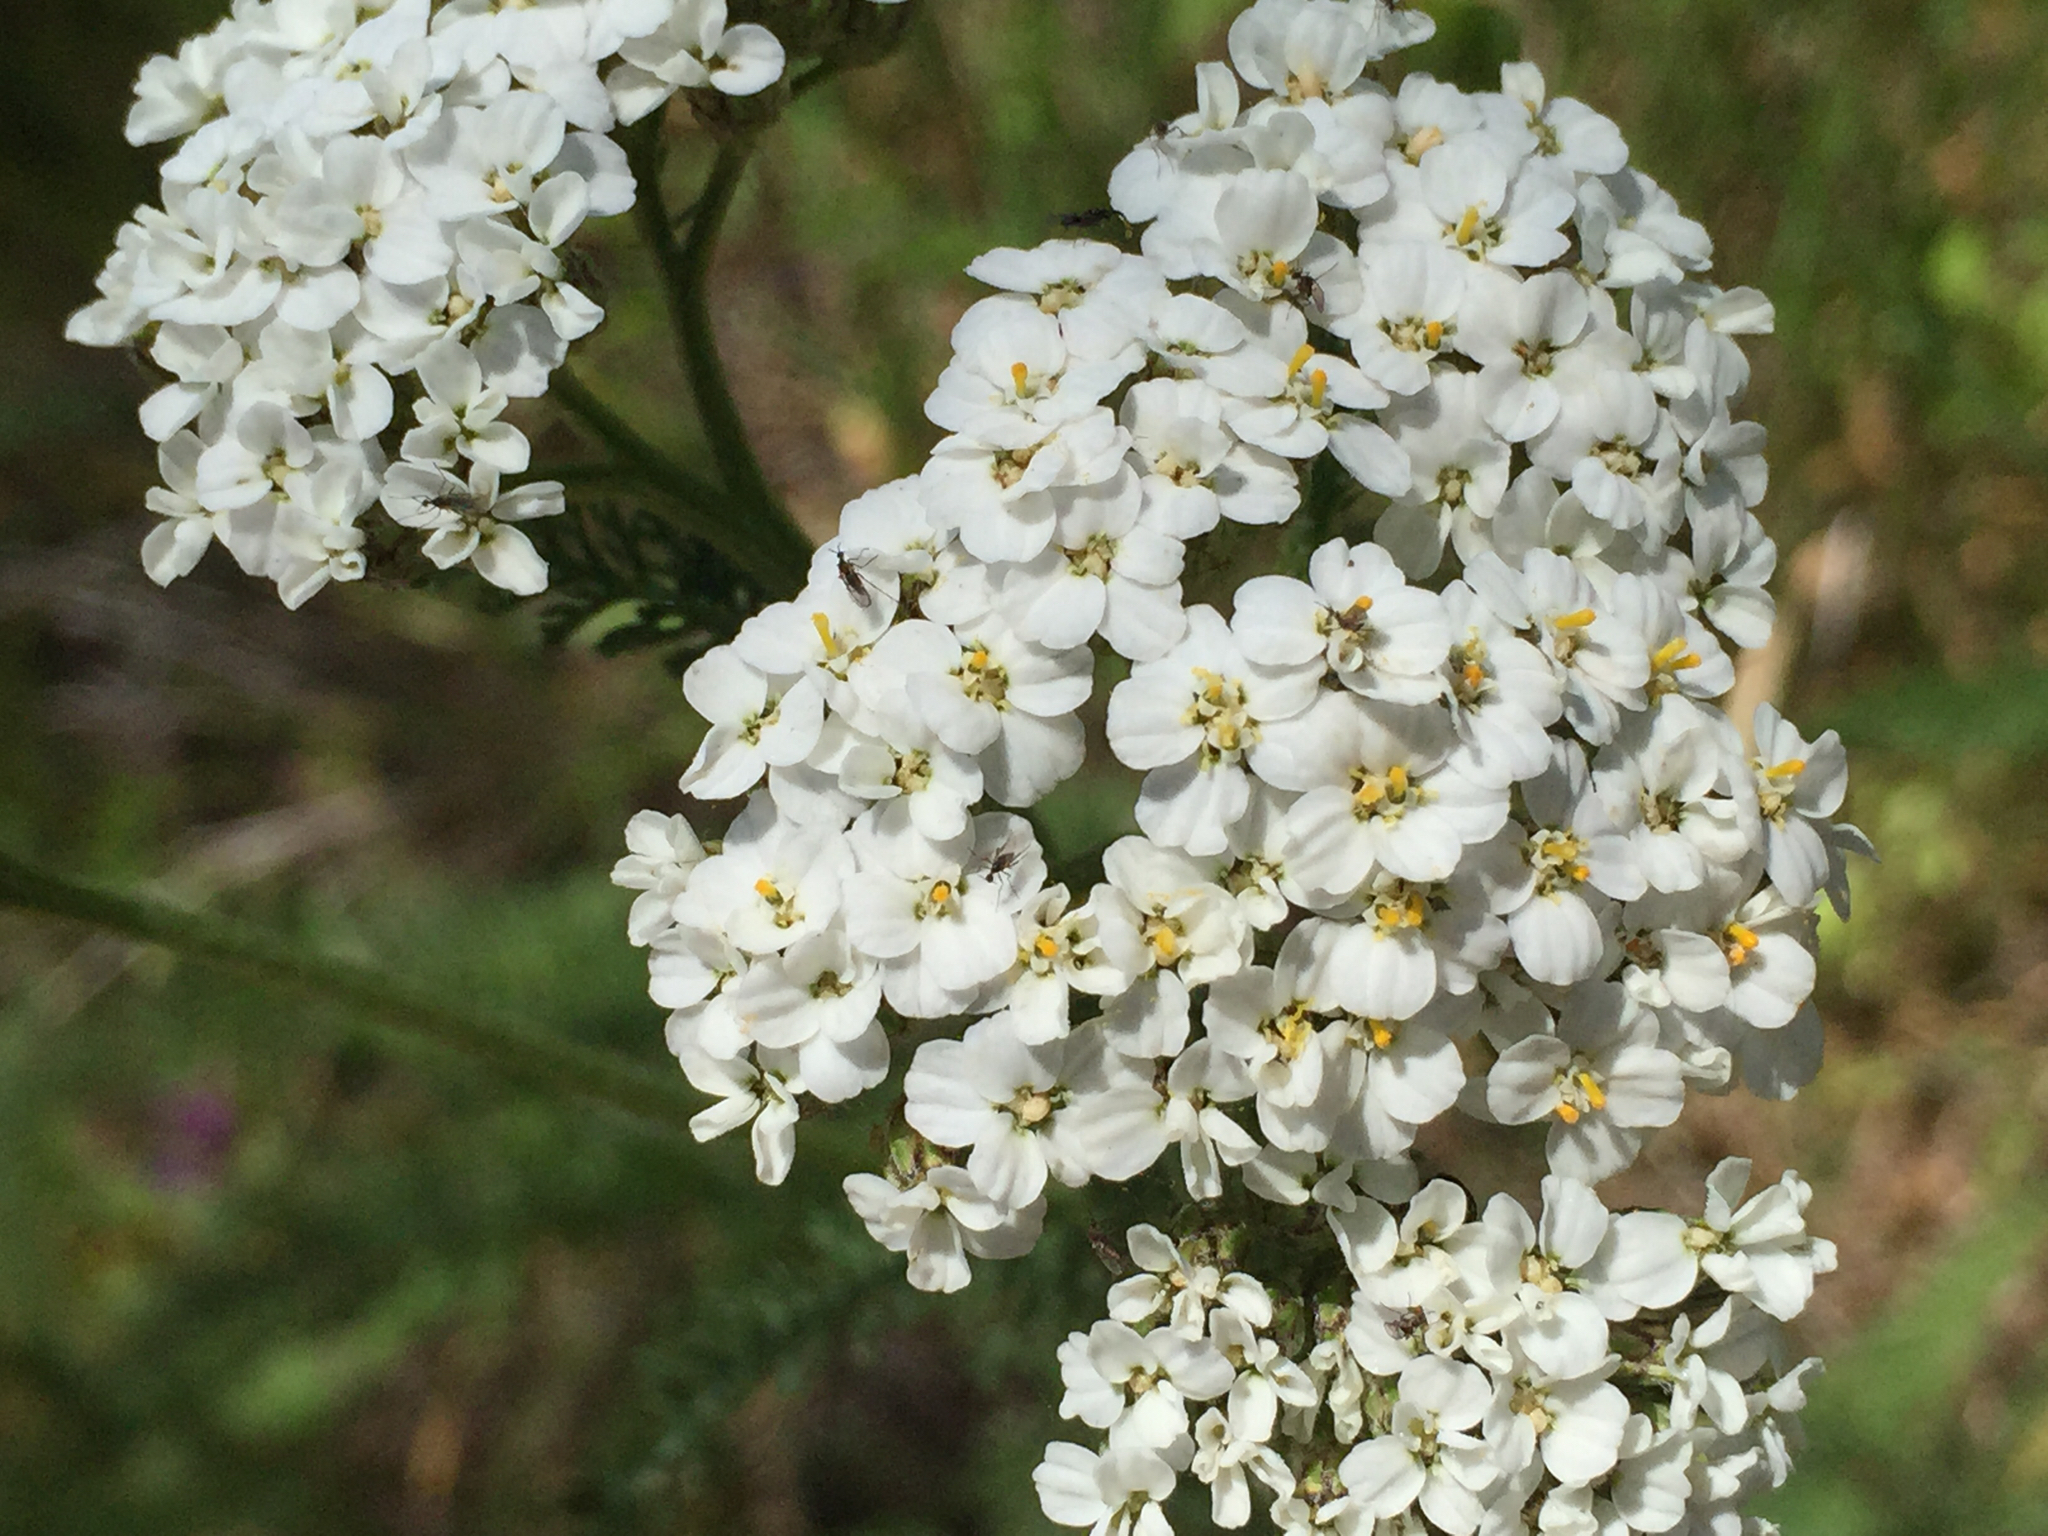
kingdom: Plantae
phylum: Tracheophyta
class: Magnoliopsida
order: Asterales
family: Asteraceae
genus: Achillea
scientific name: Achillea millefolium
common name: Yarrow
